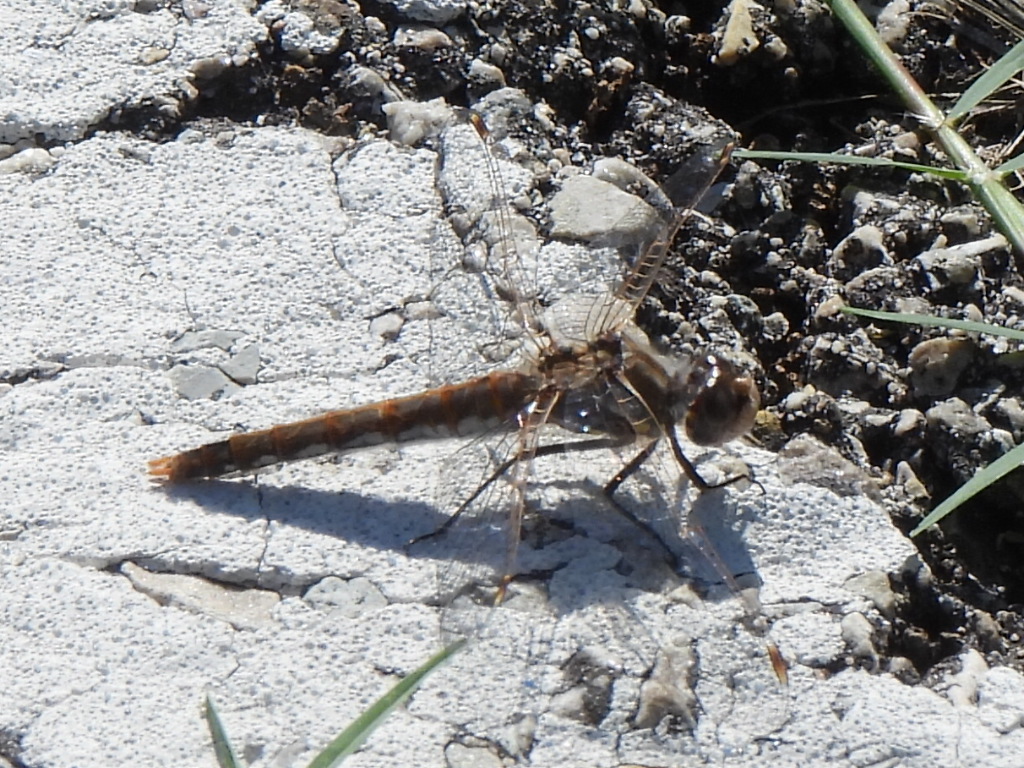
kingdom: Animalia
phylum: Arthropoda
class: Insecta
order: Odonata
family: Libellulidae
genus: Sympetrum
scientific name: Sympetrum corruptum
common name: Variegated meadowhawk
